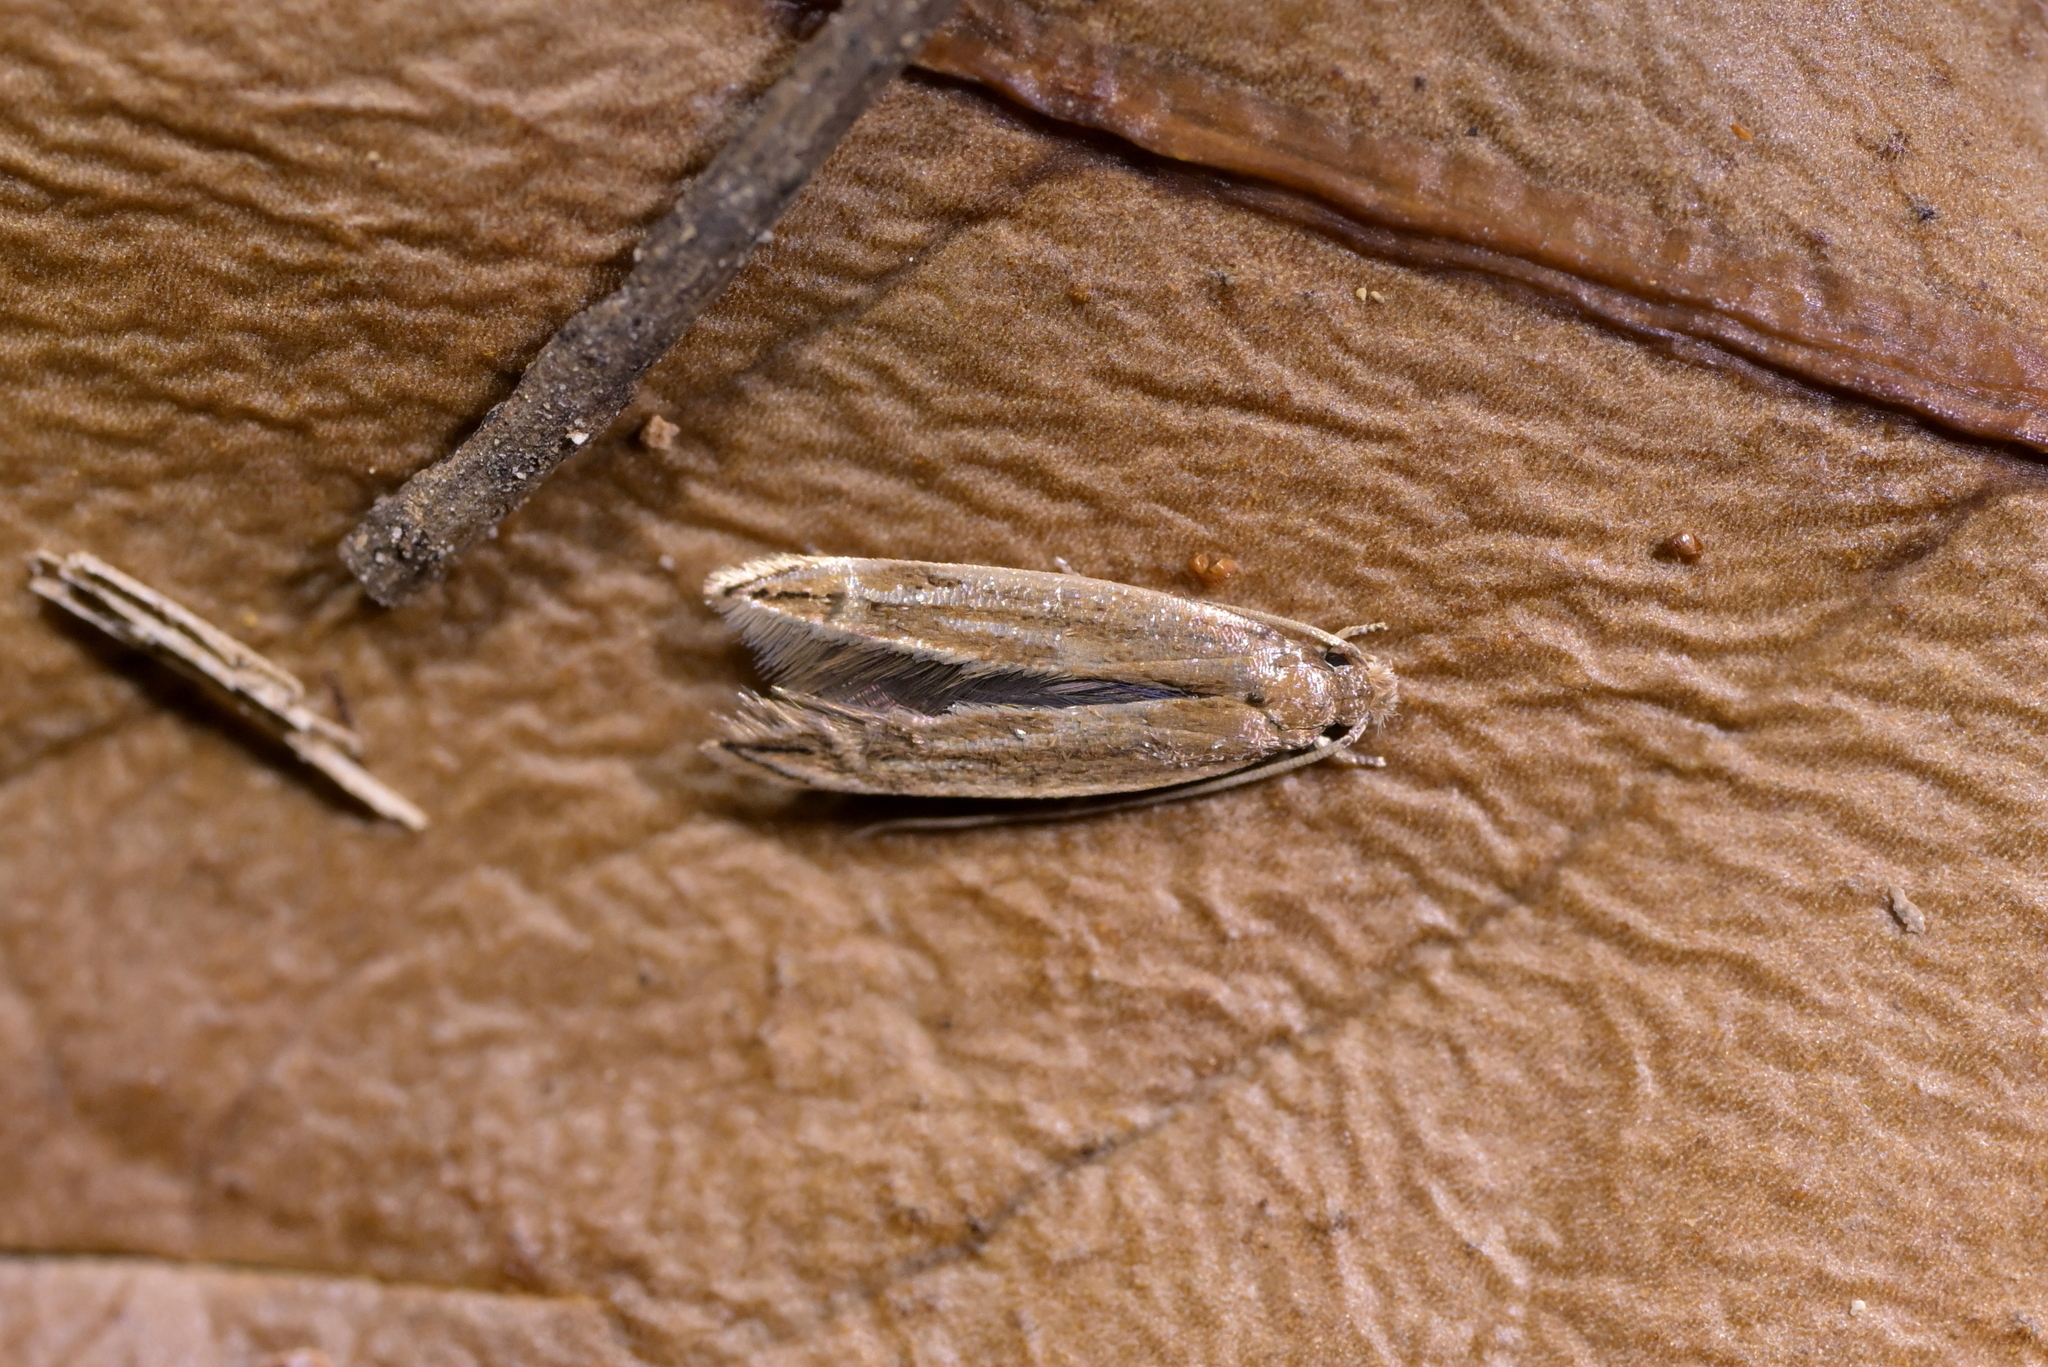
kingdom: Animalia
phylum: Arthropoda
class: Insecta
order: Lepidoptera
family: Tineidae
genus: Amphixystis
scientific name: Amphixystis hapsimacha
